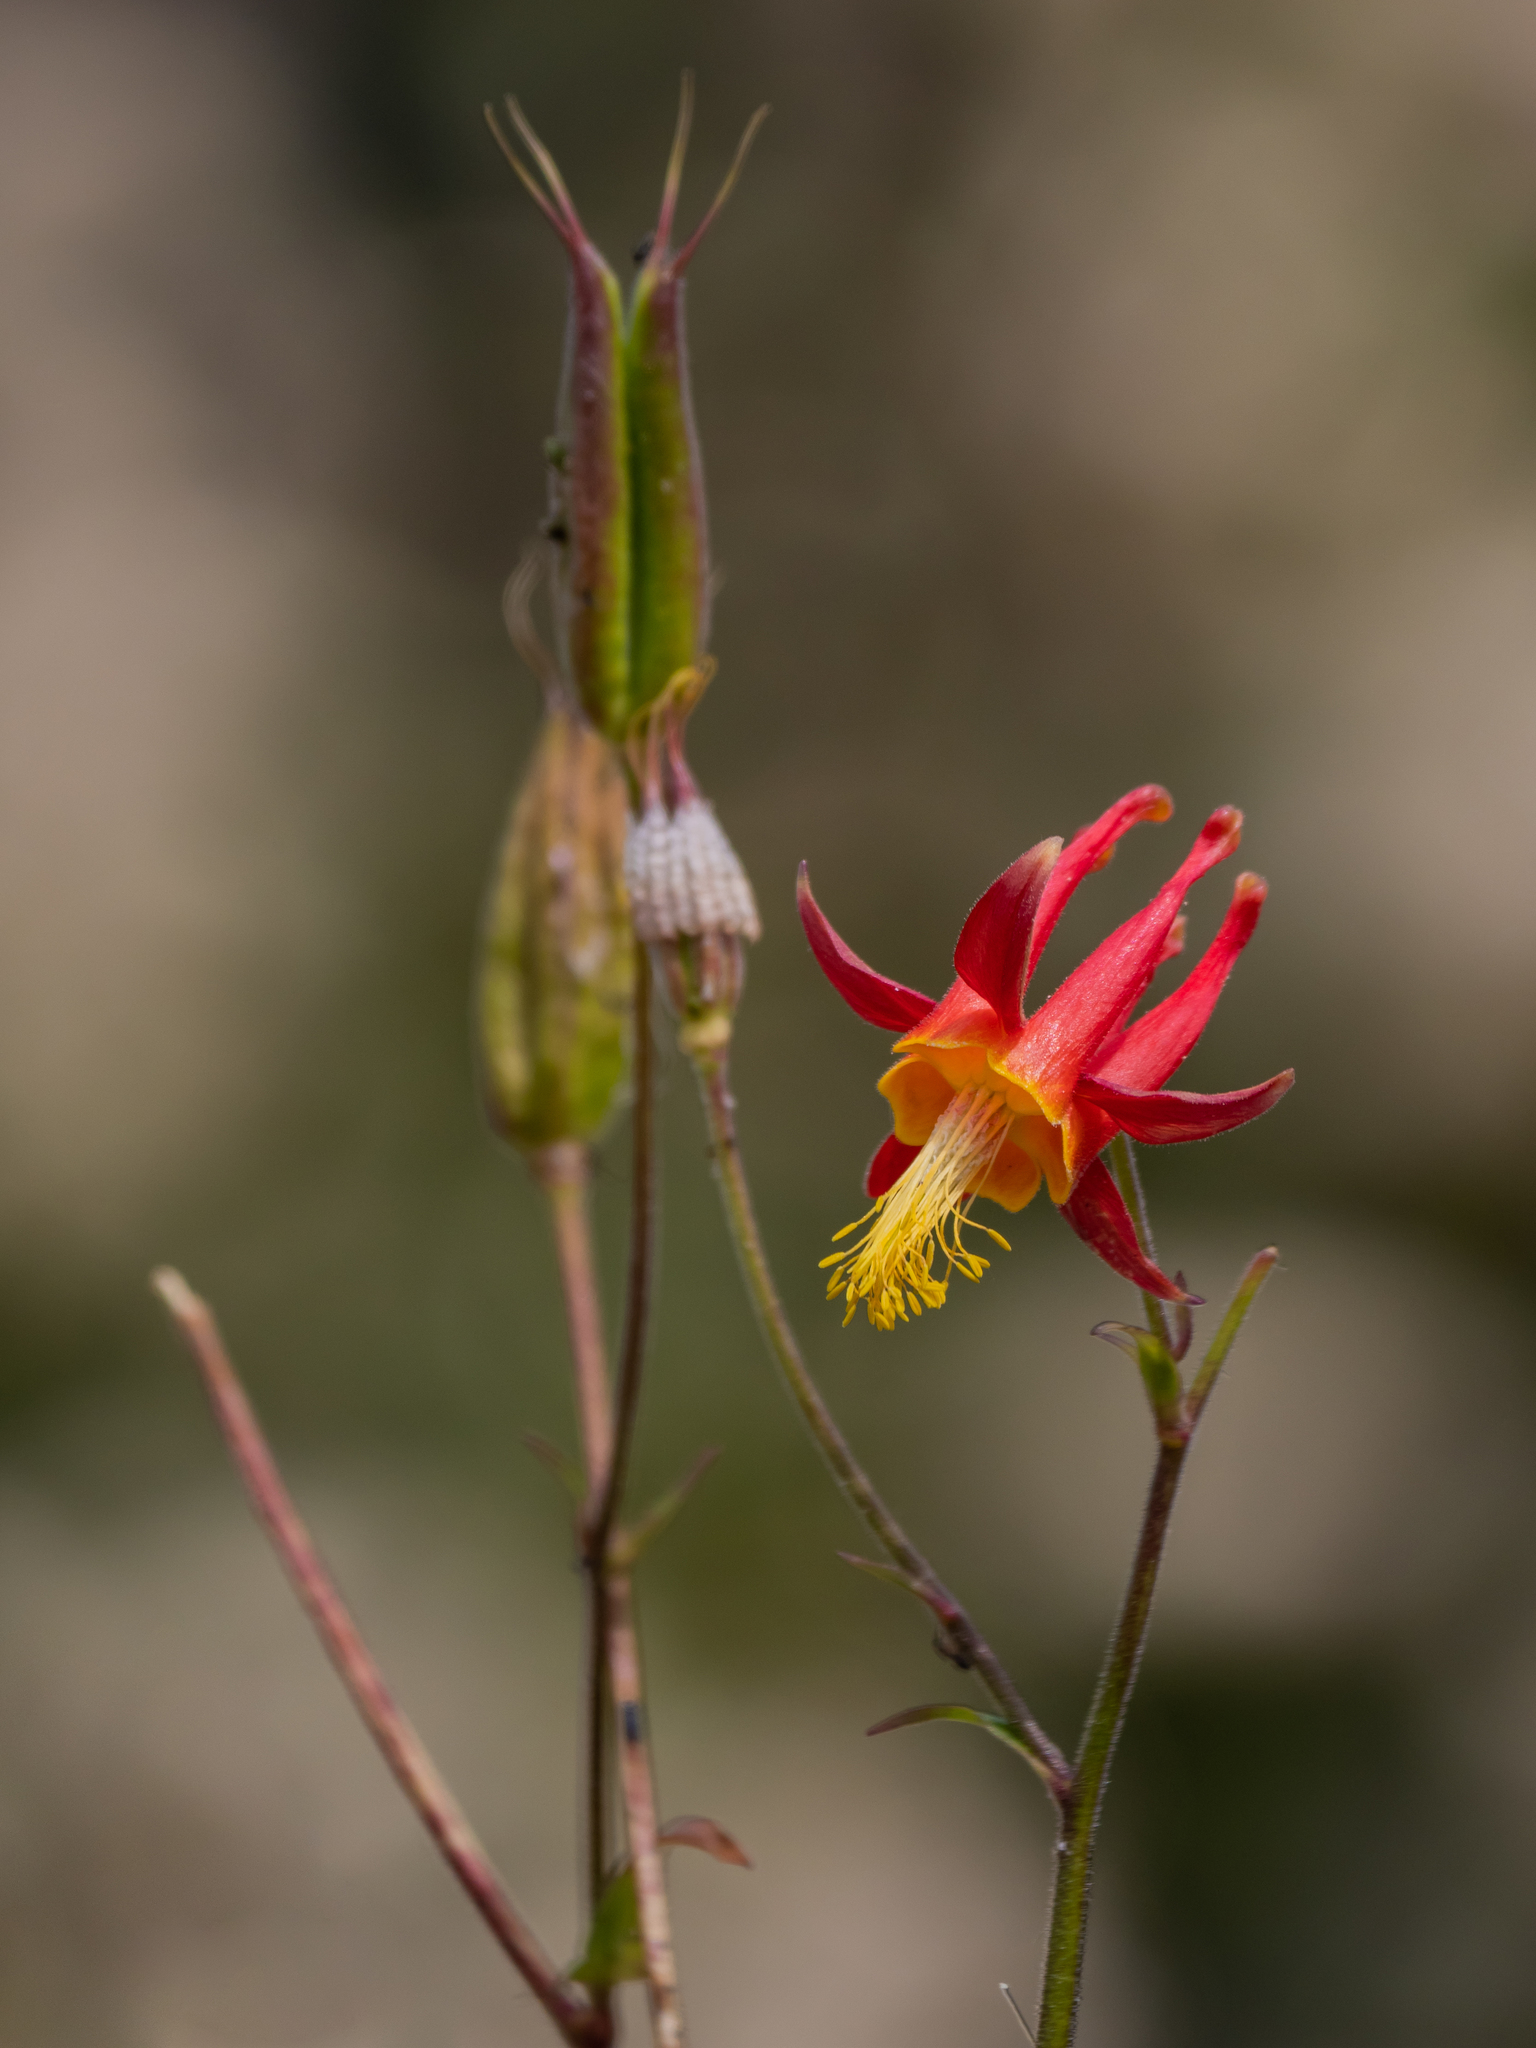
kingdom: Plantae
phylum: Tracheophyta
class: Magnoliopsida
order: Ranunculales
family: Ranunculaceae
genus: Aquilegia
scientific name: Aquilegia formosa
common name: Sitka columbine
